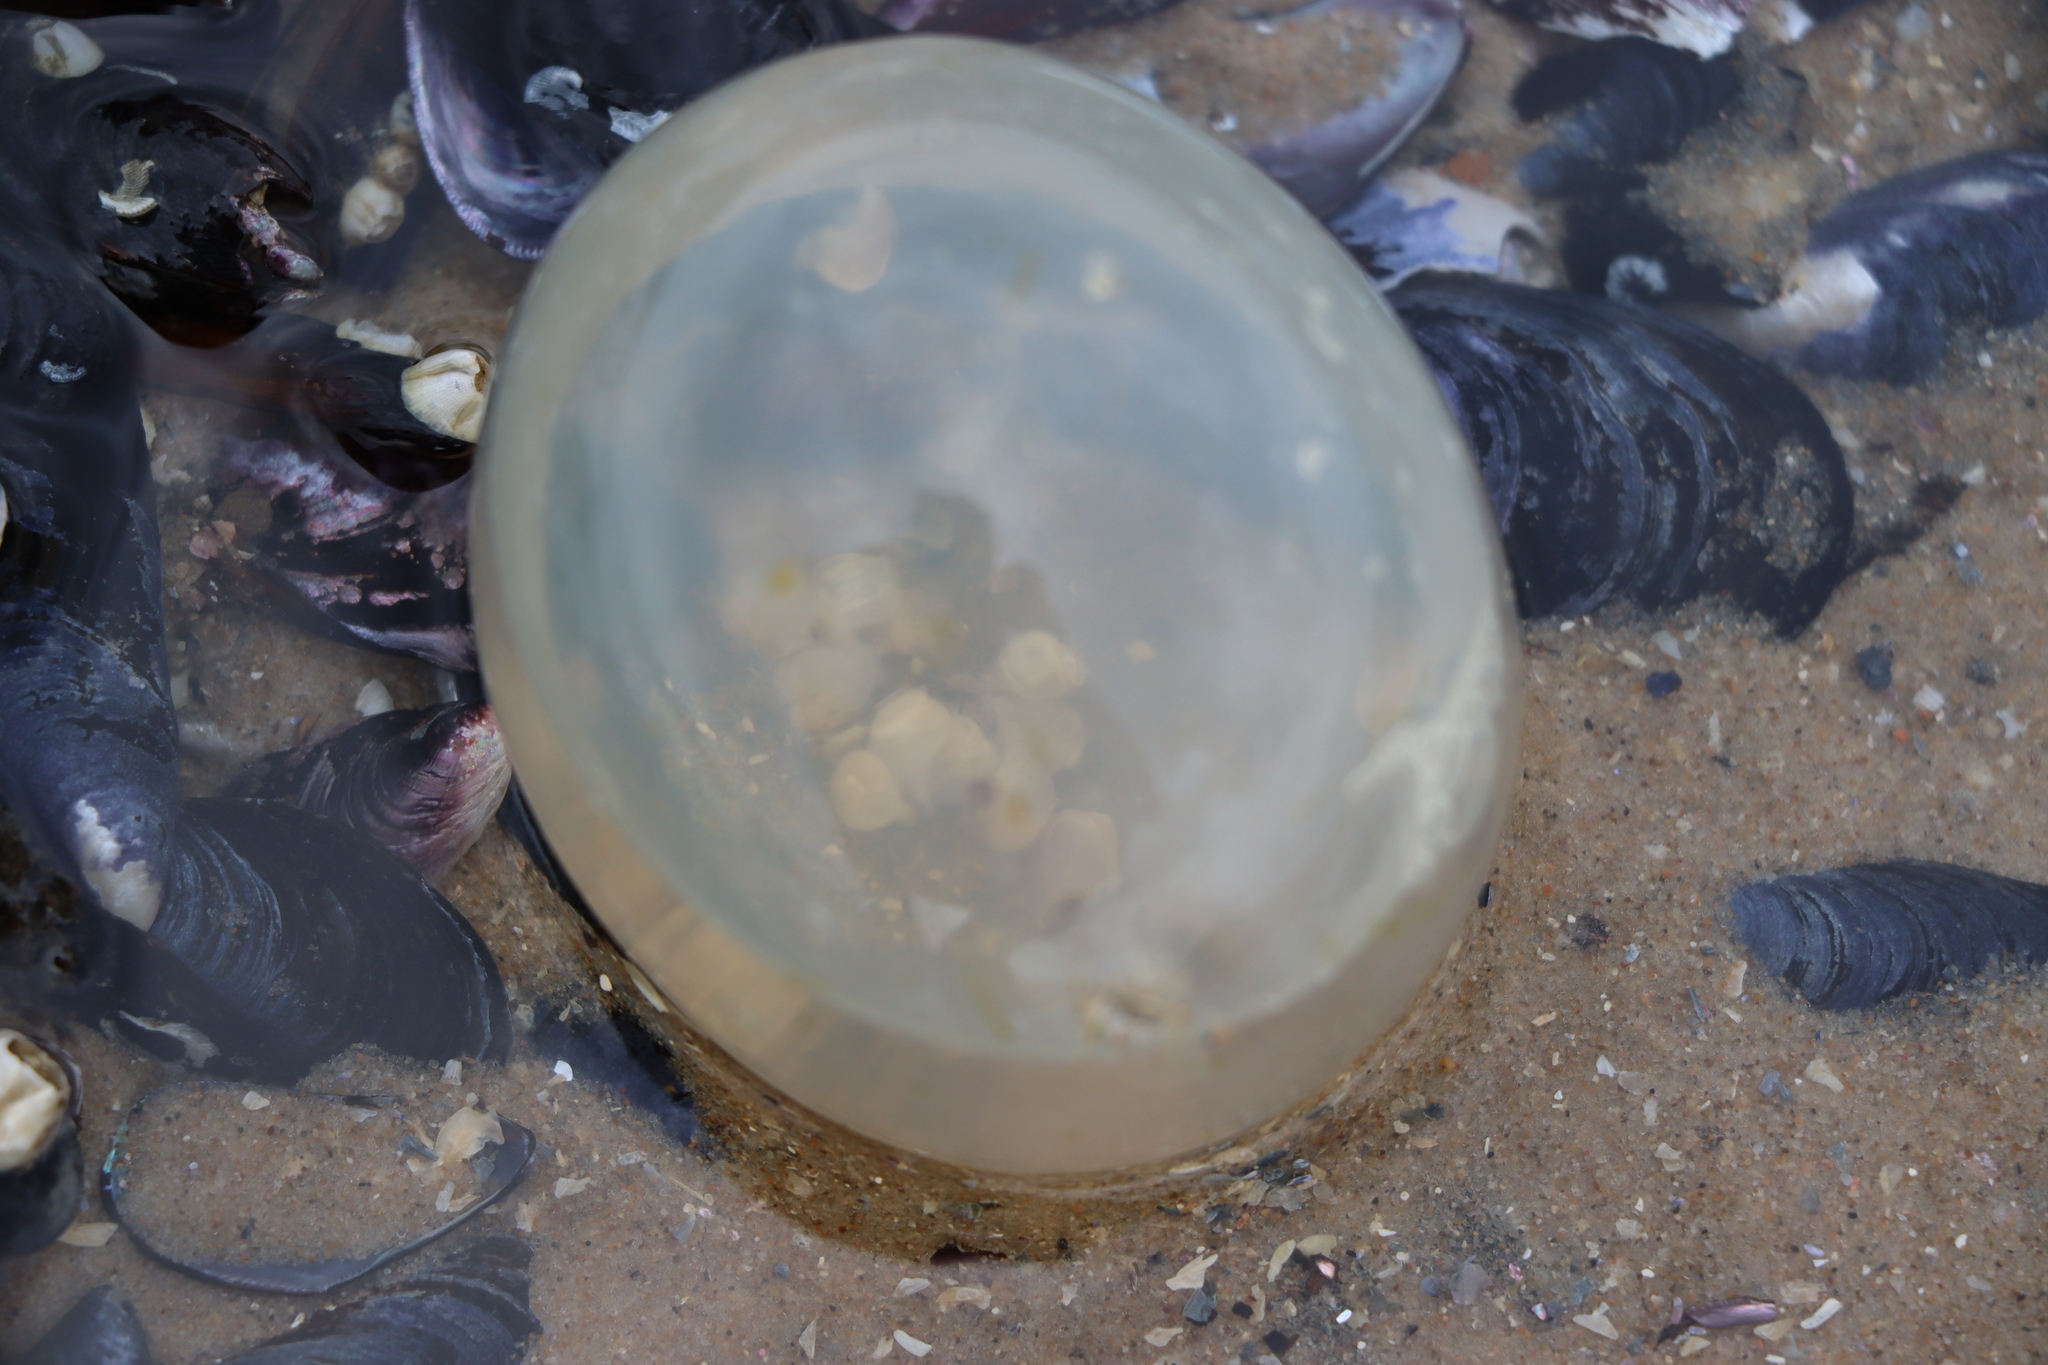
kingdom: Animalia
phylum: Mollusca
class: Gastropoda
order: Neogastropoda
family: Volutidae
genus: Pachycymbiola
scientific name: Pachycymbiola brasiliana
